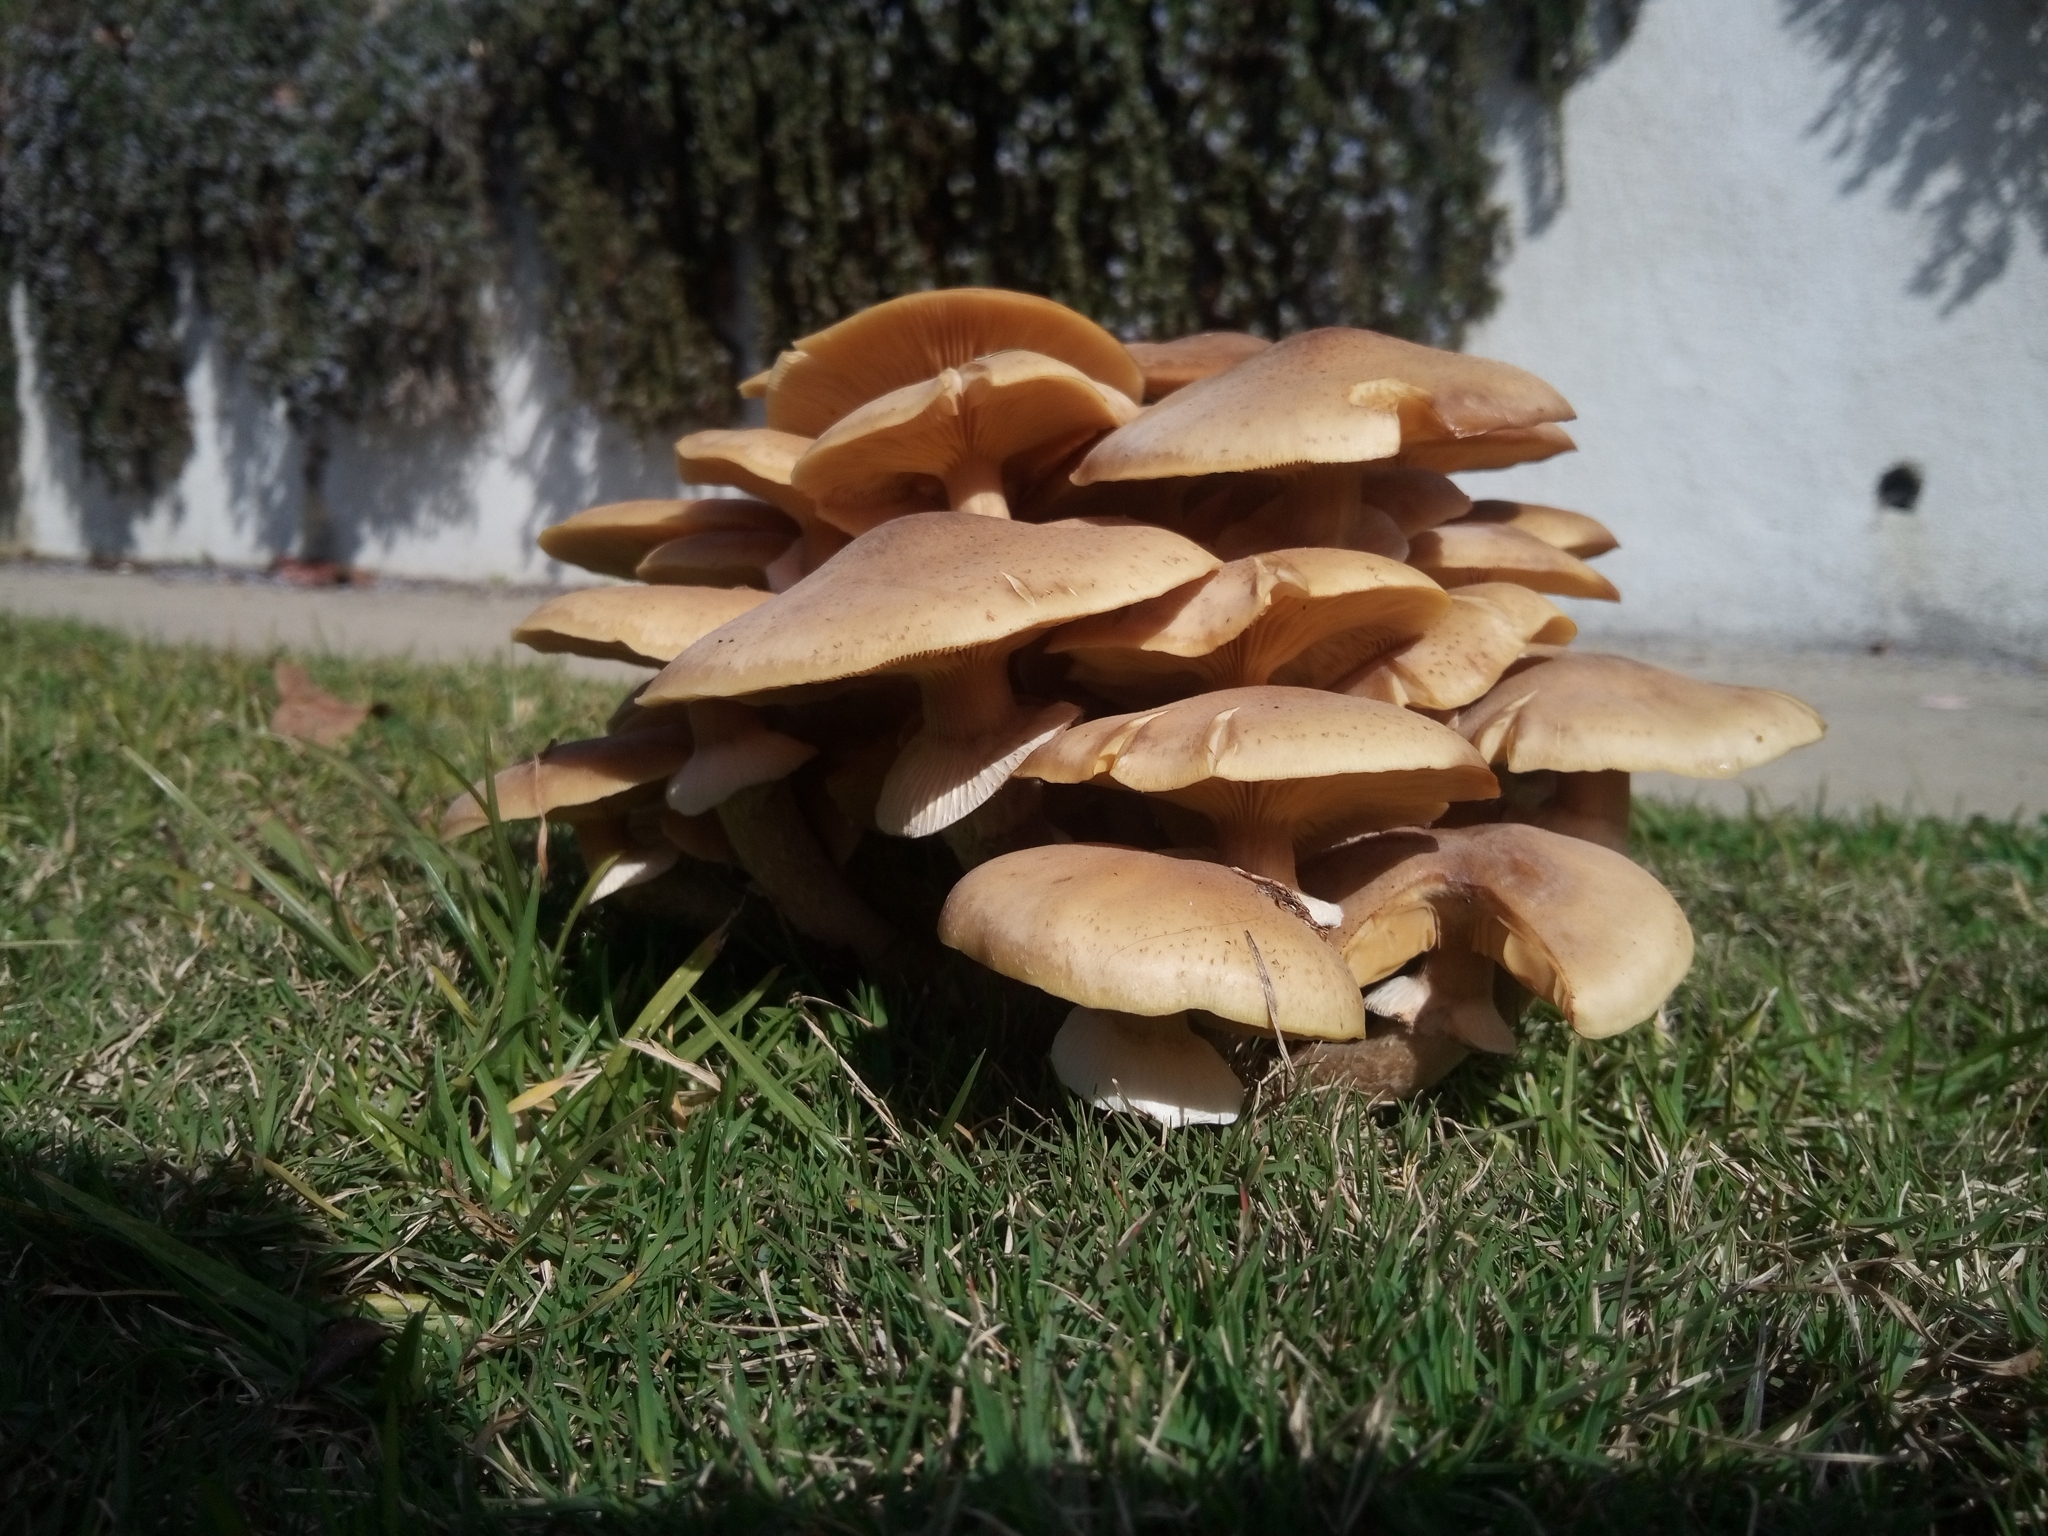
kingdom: Fungi
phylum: Basidiomycota
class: Agaricomycetes
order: Agaricales
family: Physalacriaceae
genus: Armillaria
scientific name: Armillaria mellea
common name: Honey fungus
